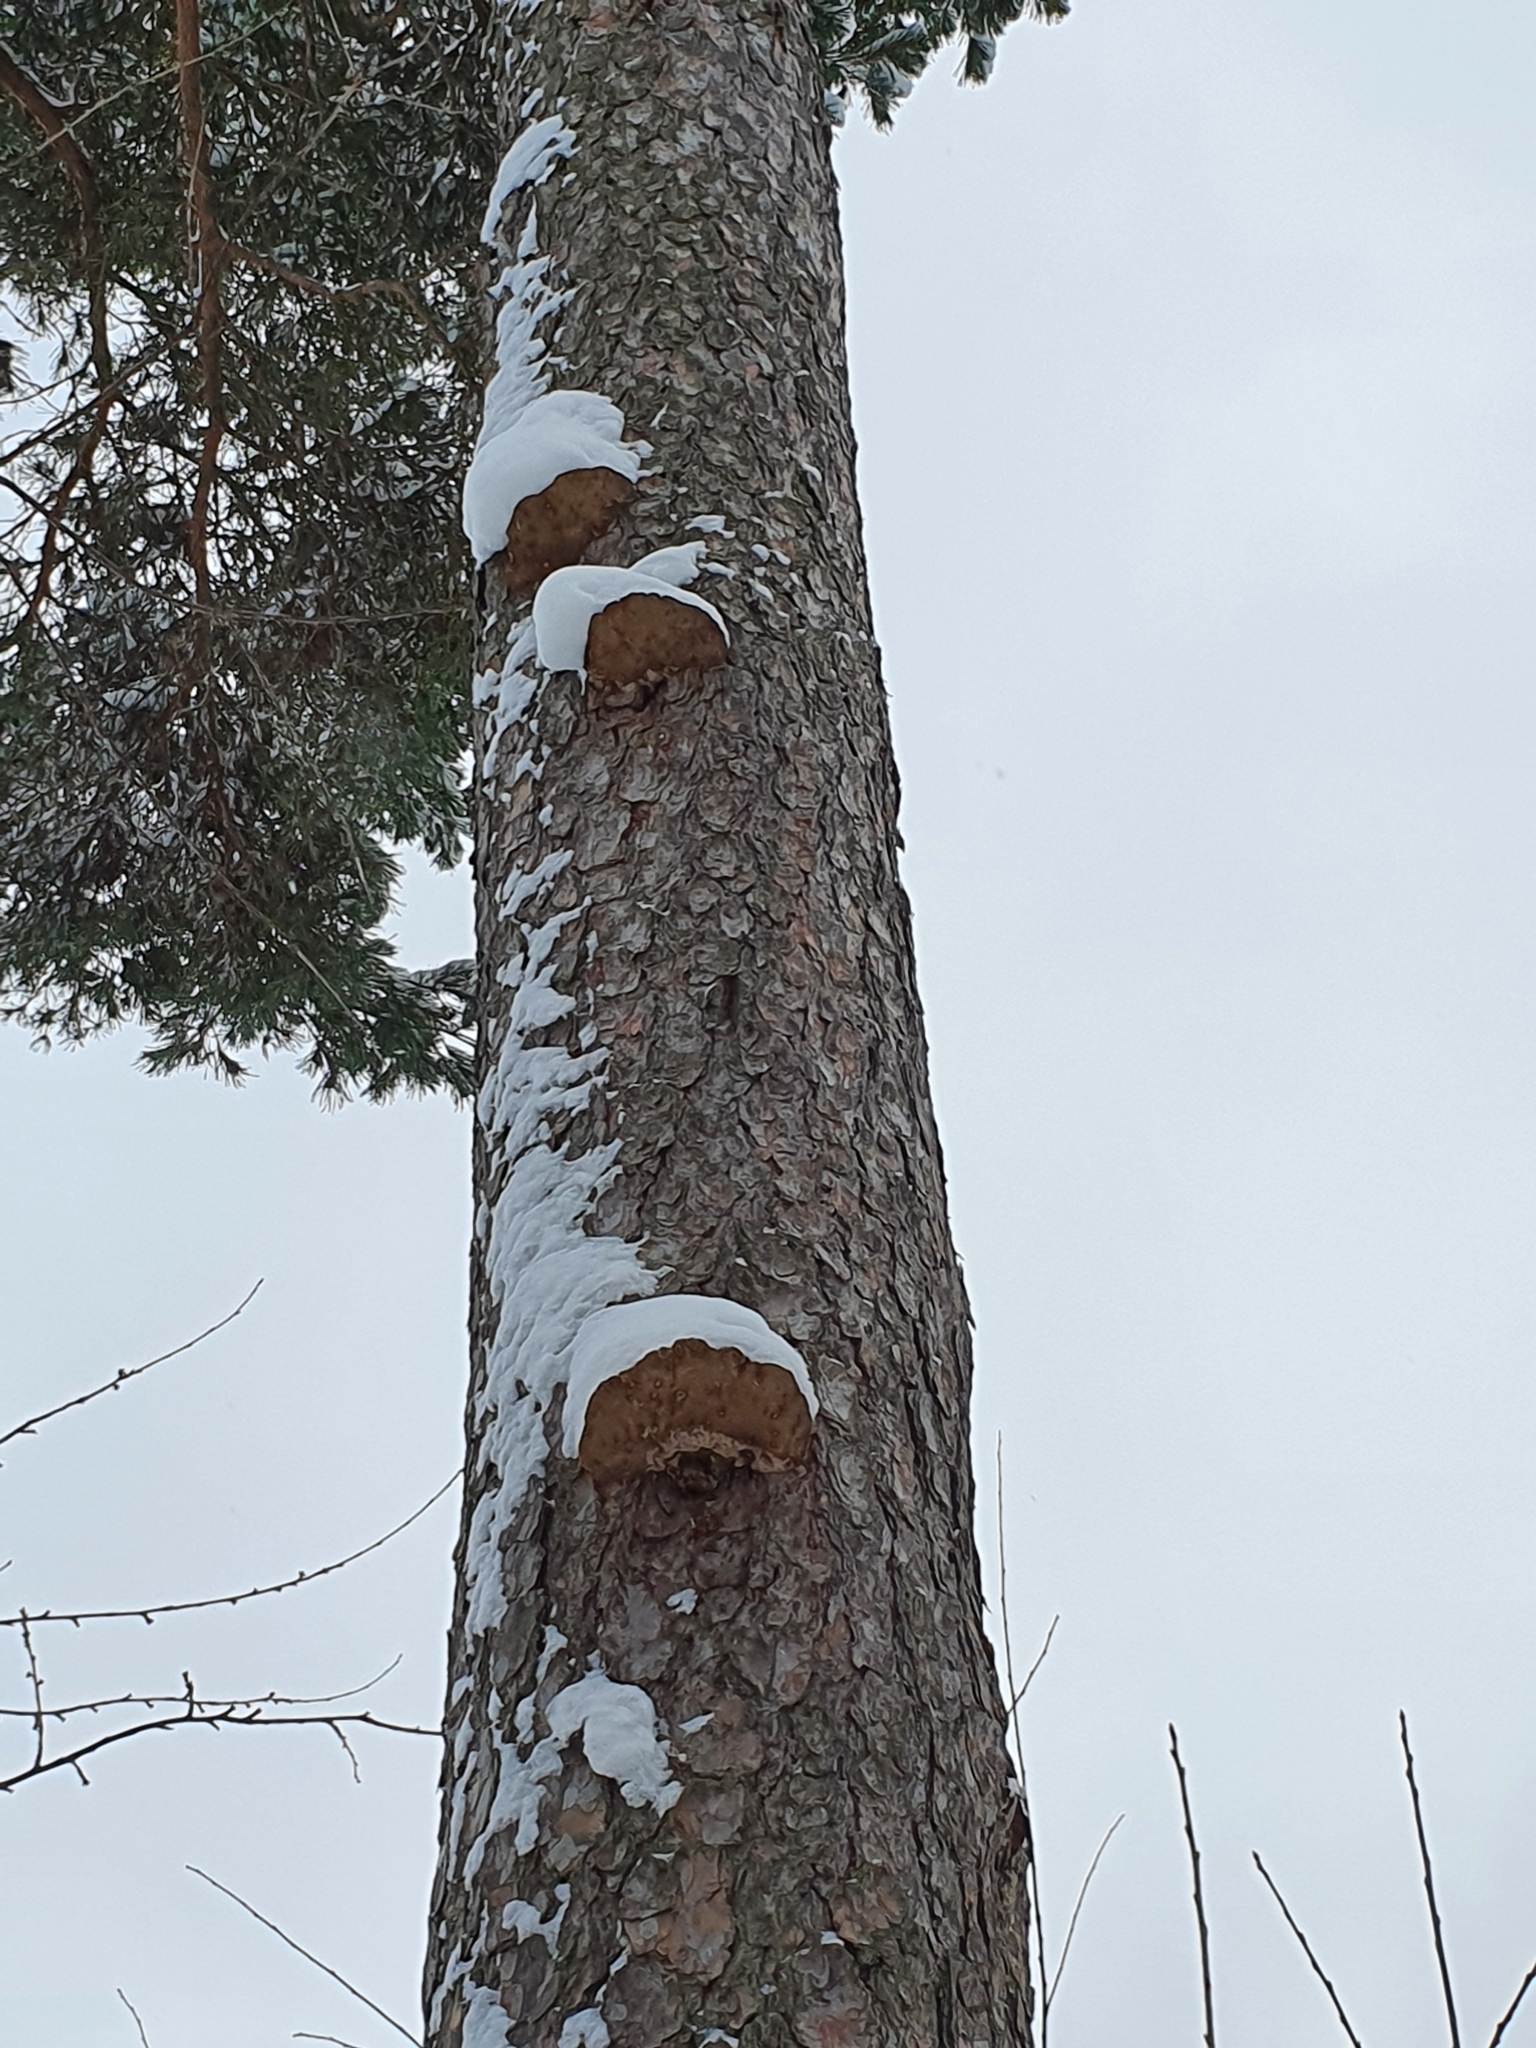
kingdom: Fungi
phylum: Basidiomycota
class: Agaricomycetes
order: Hymenochaetales
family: Hymenochaetaceae
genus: Porodaedalea
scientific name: Porodaedalea pini
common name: Pine bracket
